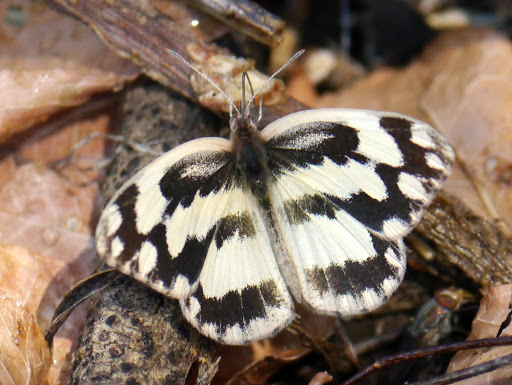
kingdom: Animalia
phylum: Arthropoda
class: Insecta
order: Lepidoptera
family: Pieridae
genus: Pinacopteryx
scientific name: Pinacopteryx eriphia
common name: Zebra white
